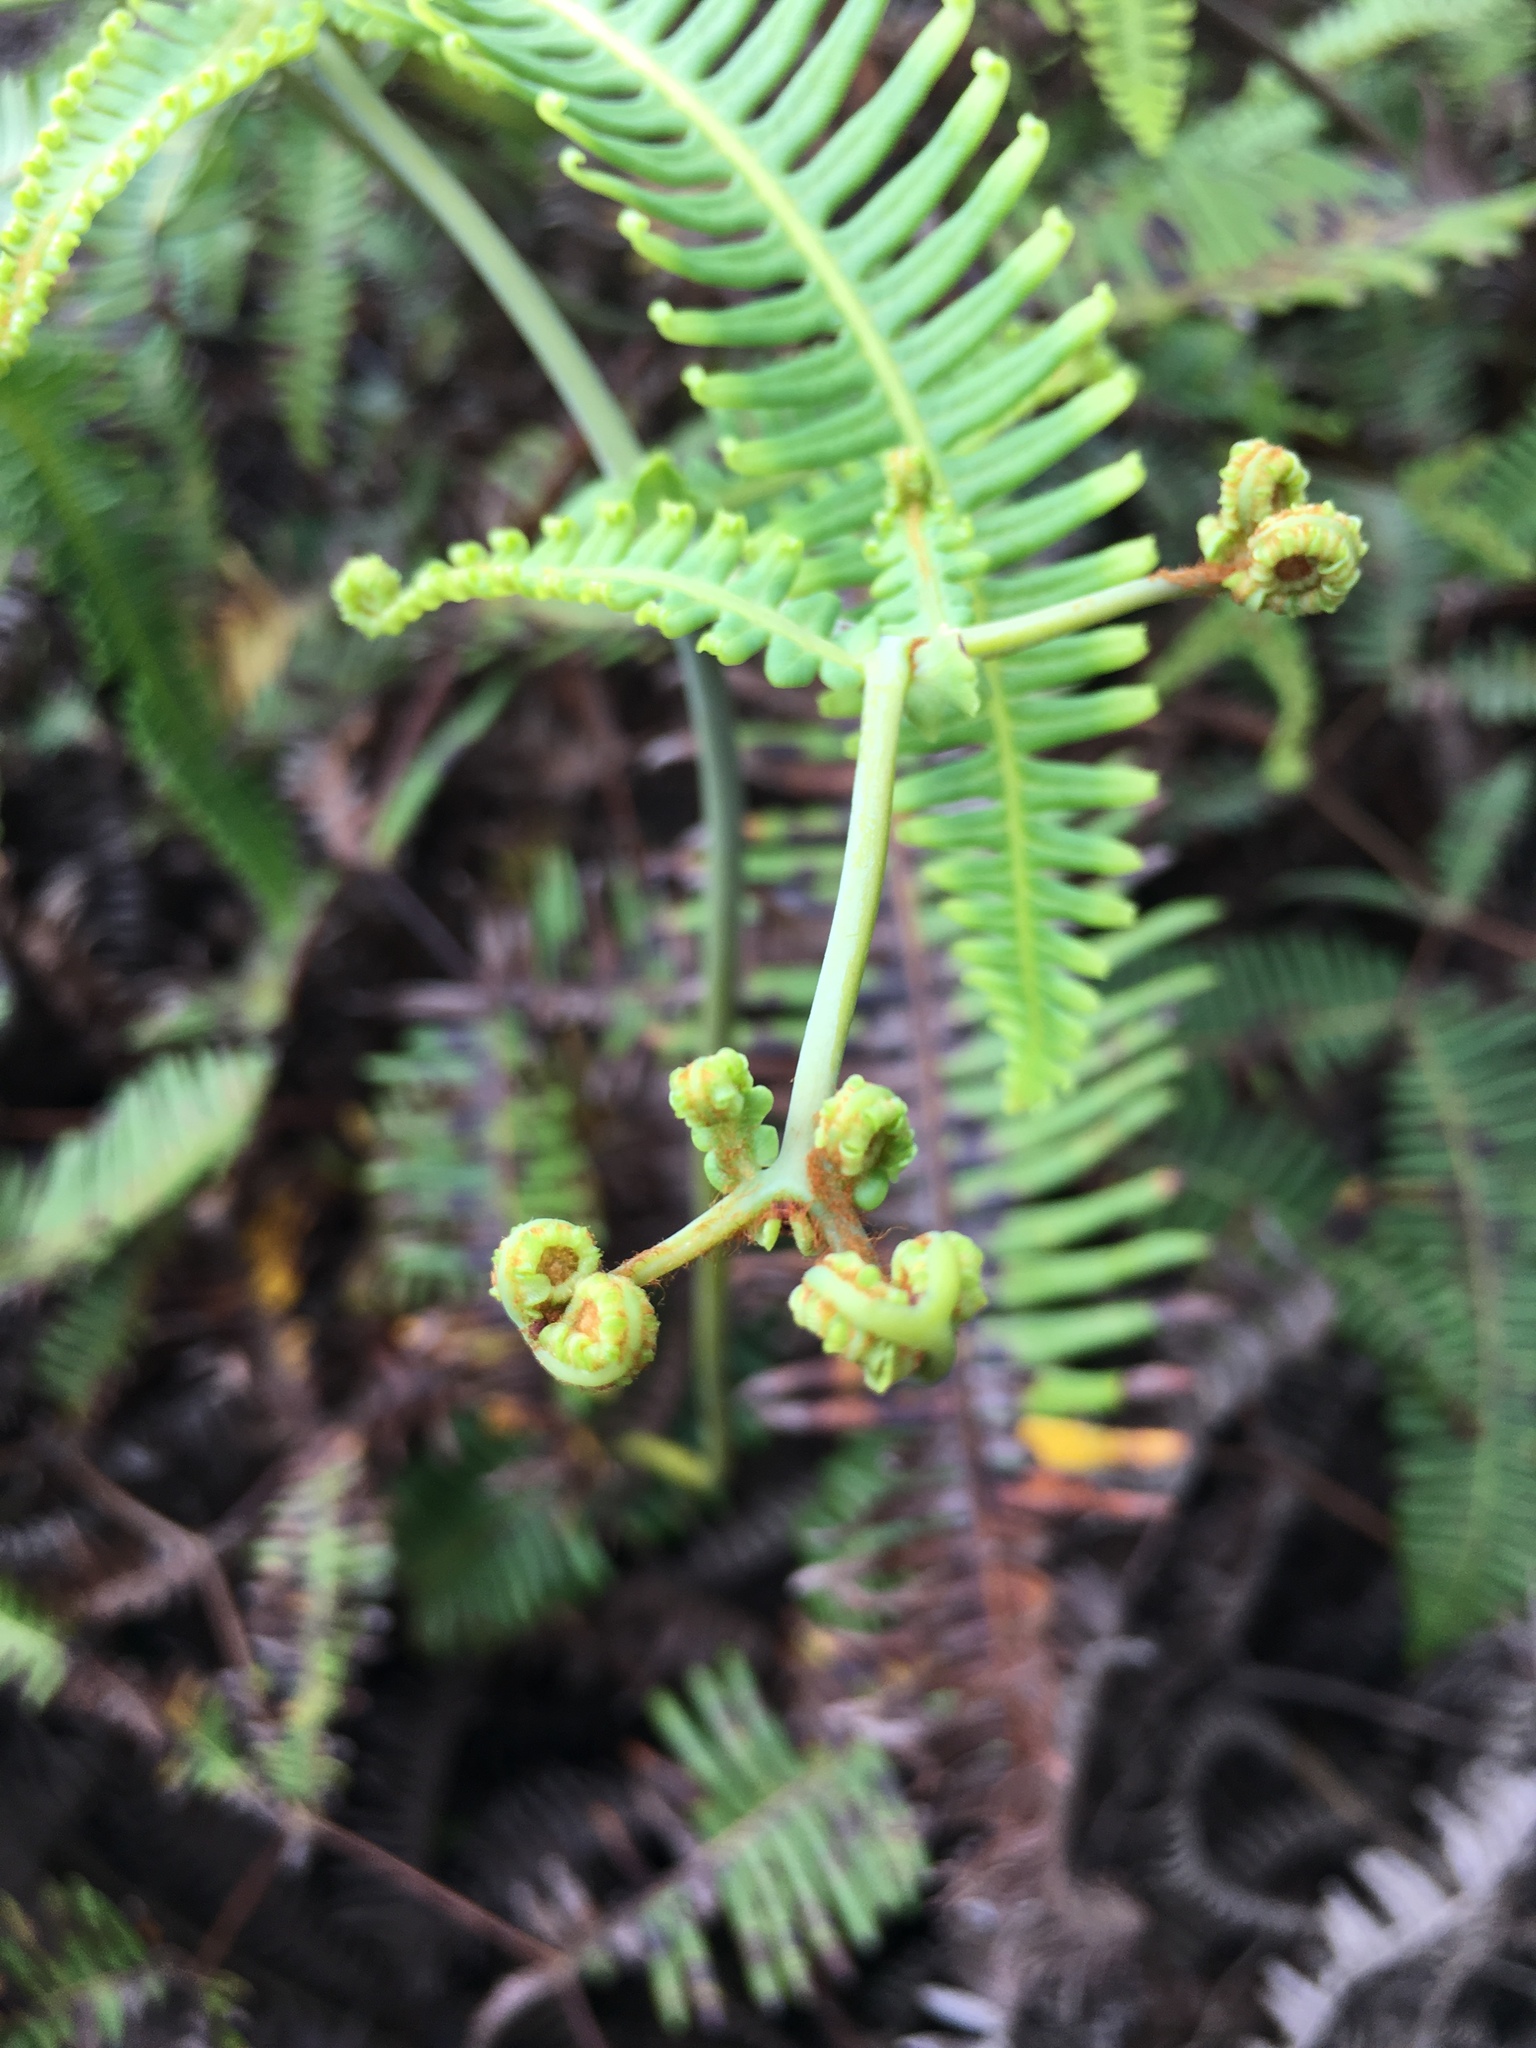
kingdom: Plantae
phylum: Tracheophyta
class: Polypodiopsida
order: Gleicheniales
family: Gleicheniaceae
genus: Dicranopteris
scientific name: Dicranopteris linearis
